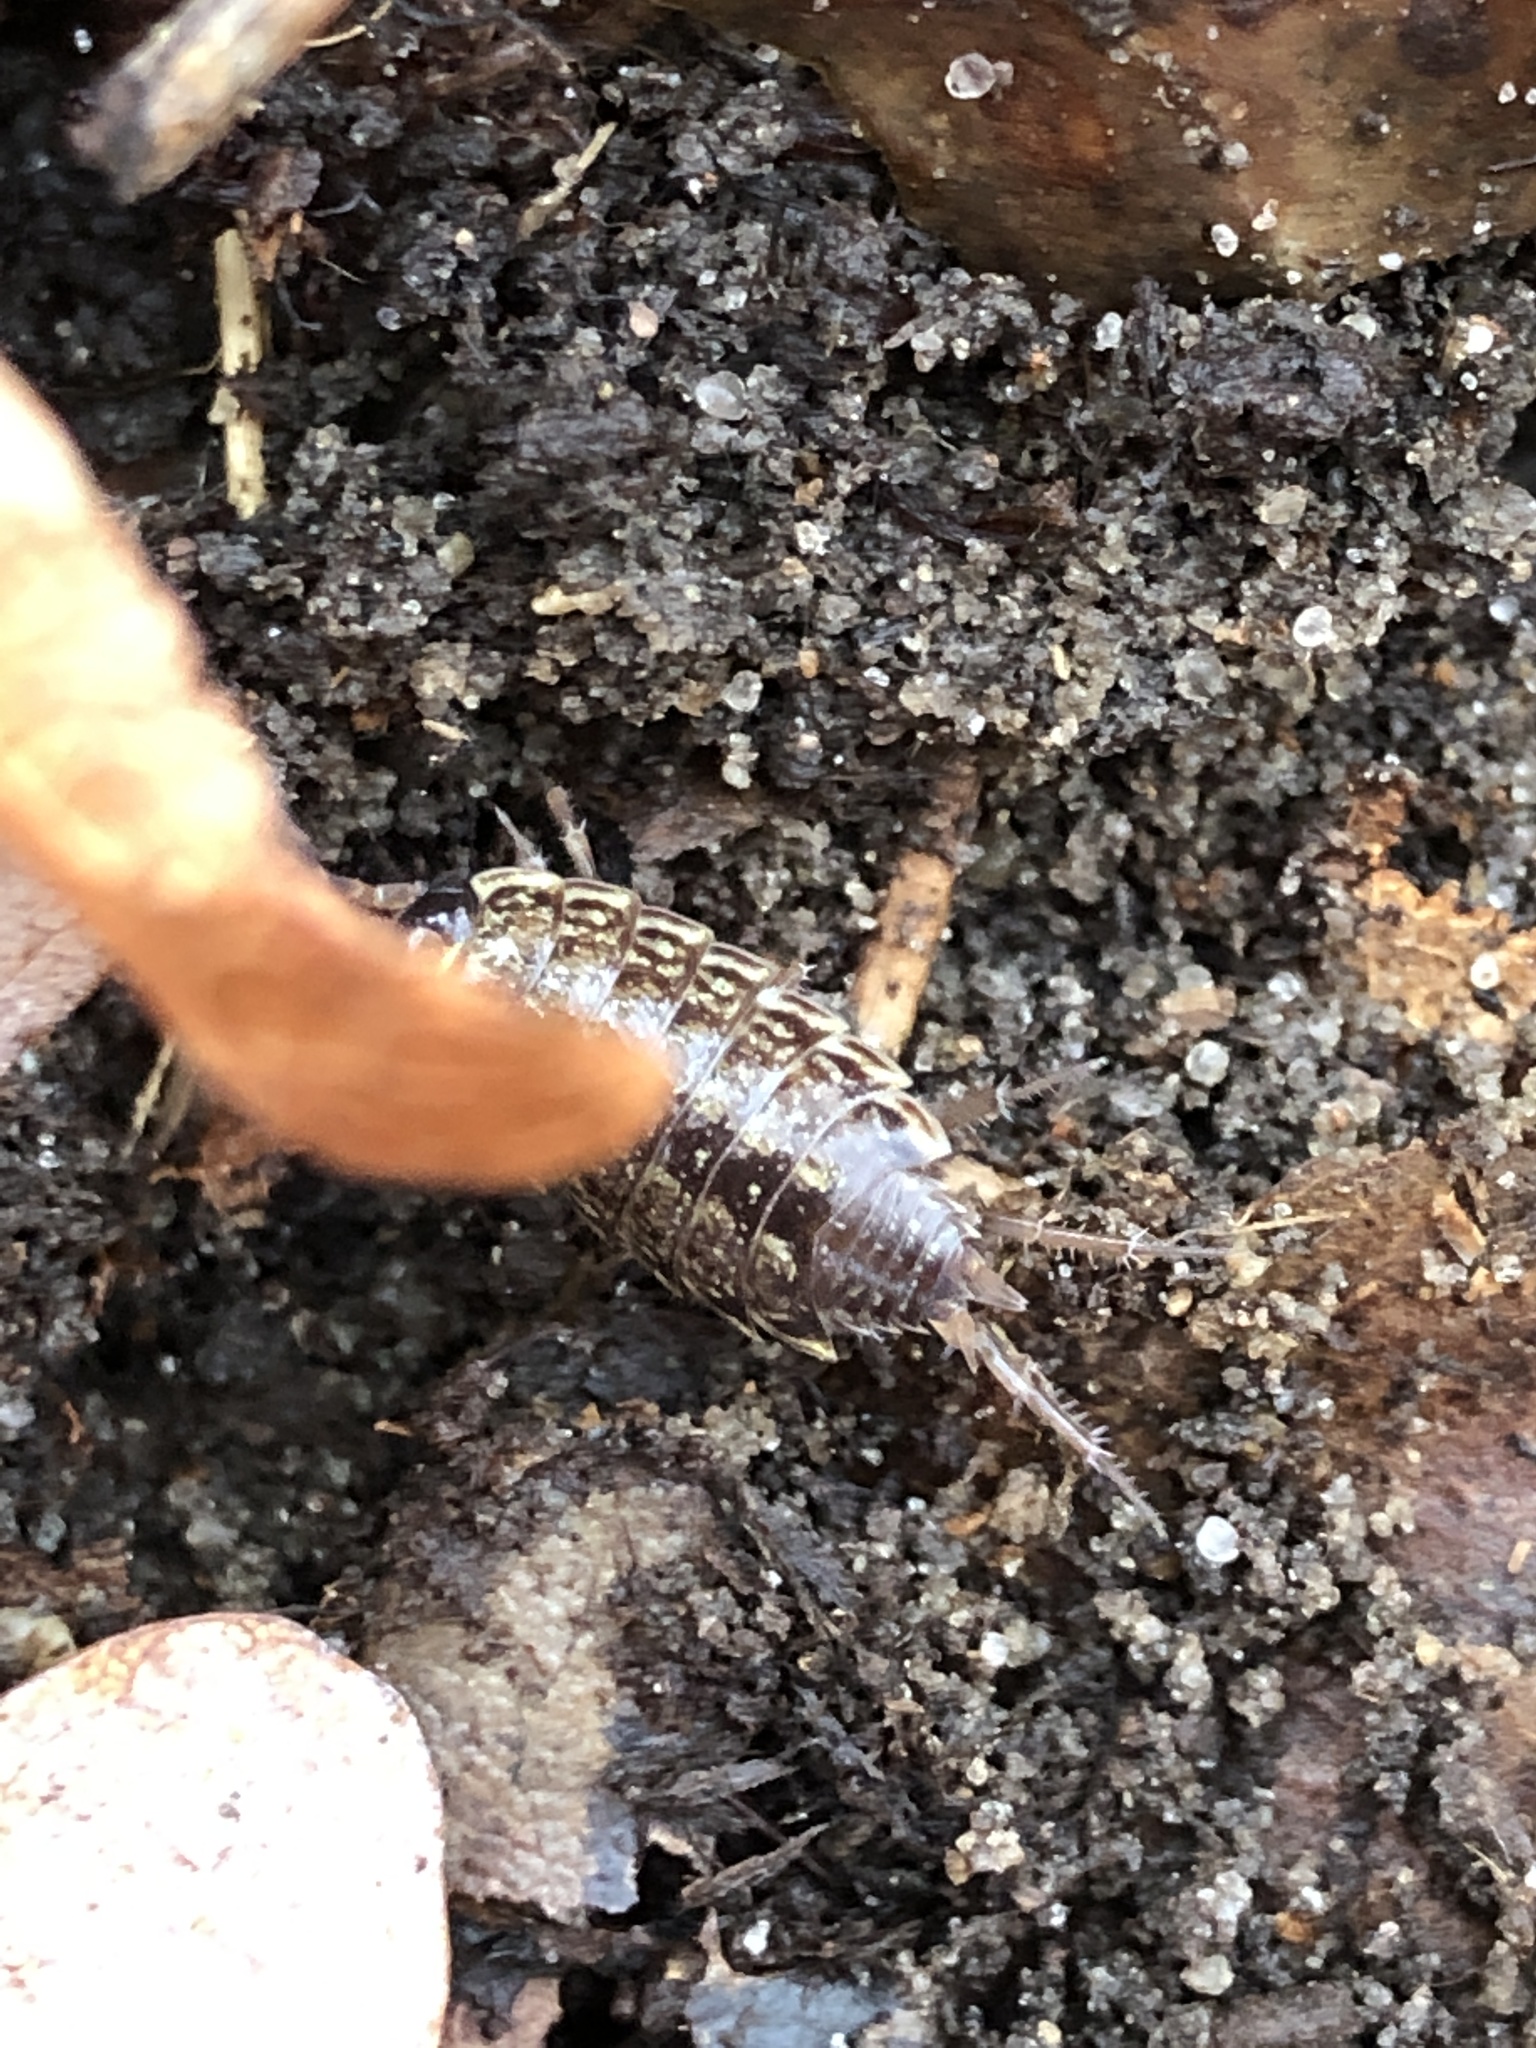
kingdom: Animalia
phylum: Arthropoda
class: Malacostraca
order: Isopoda
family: Philosciidae
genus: Philoscia
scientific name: Philoscia muscorum
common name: Common striped woodlouse
